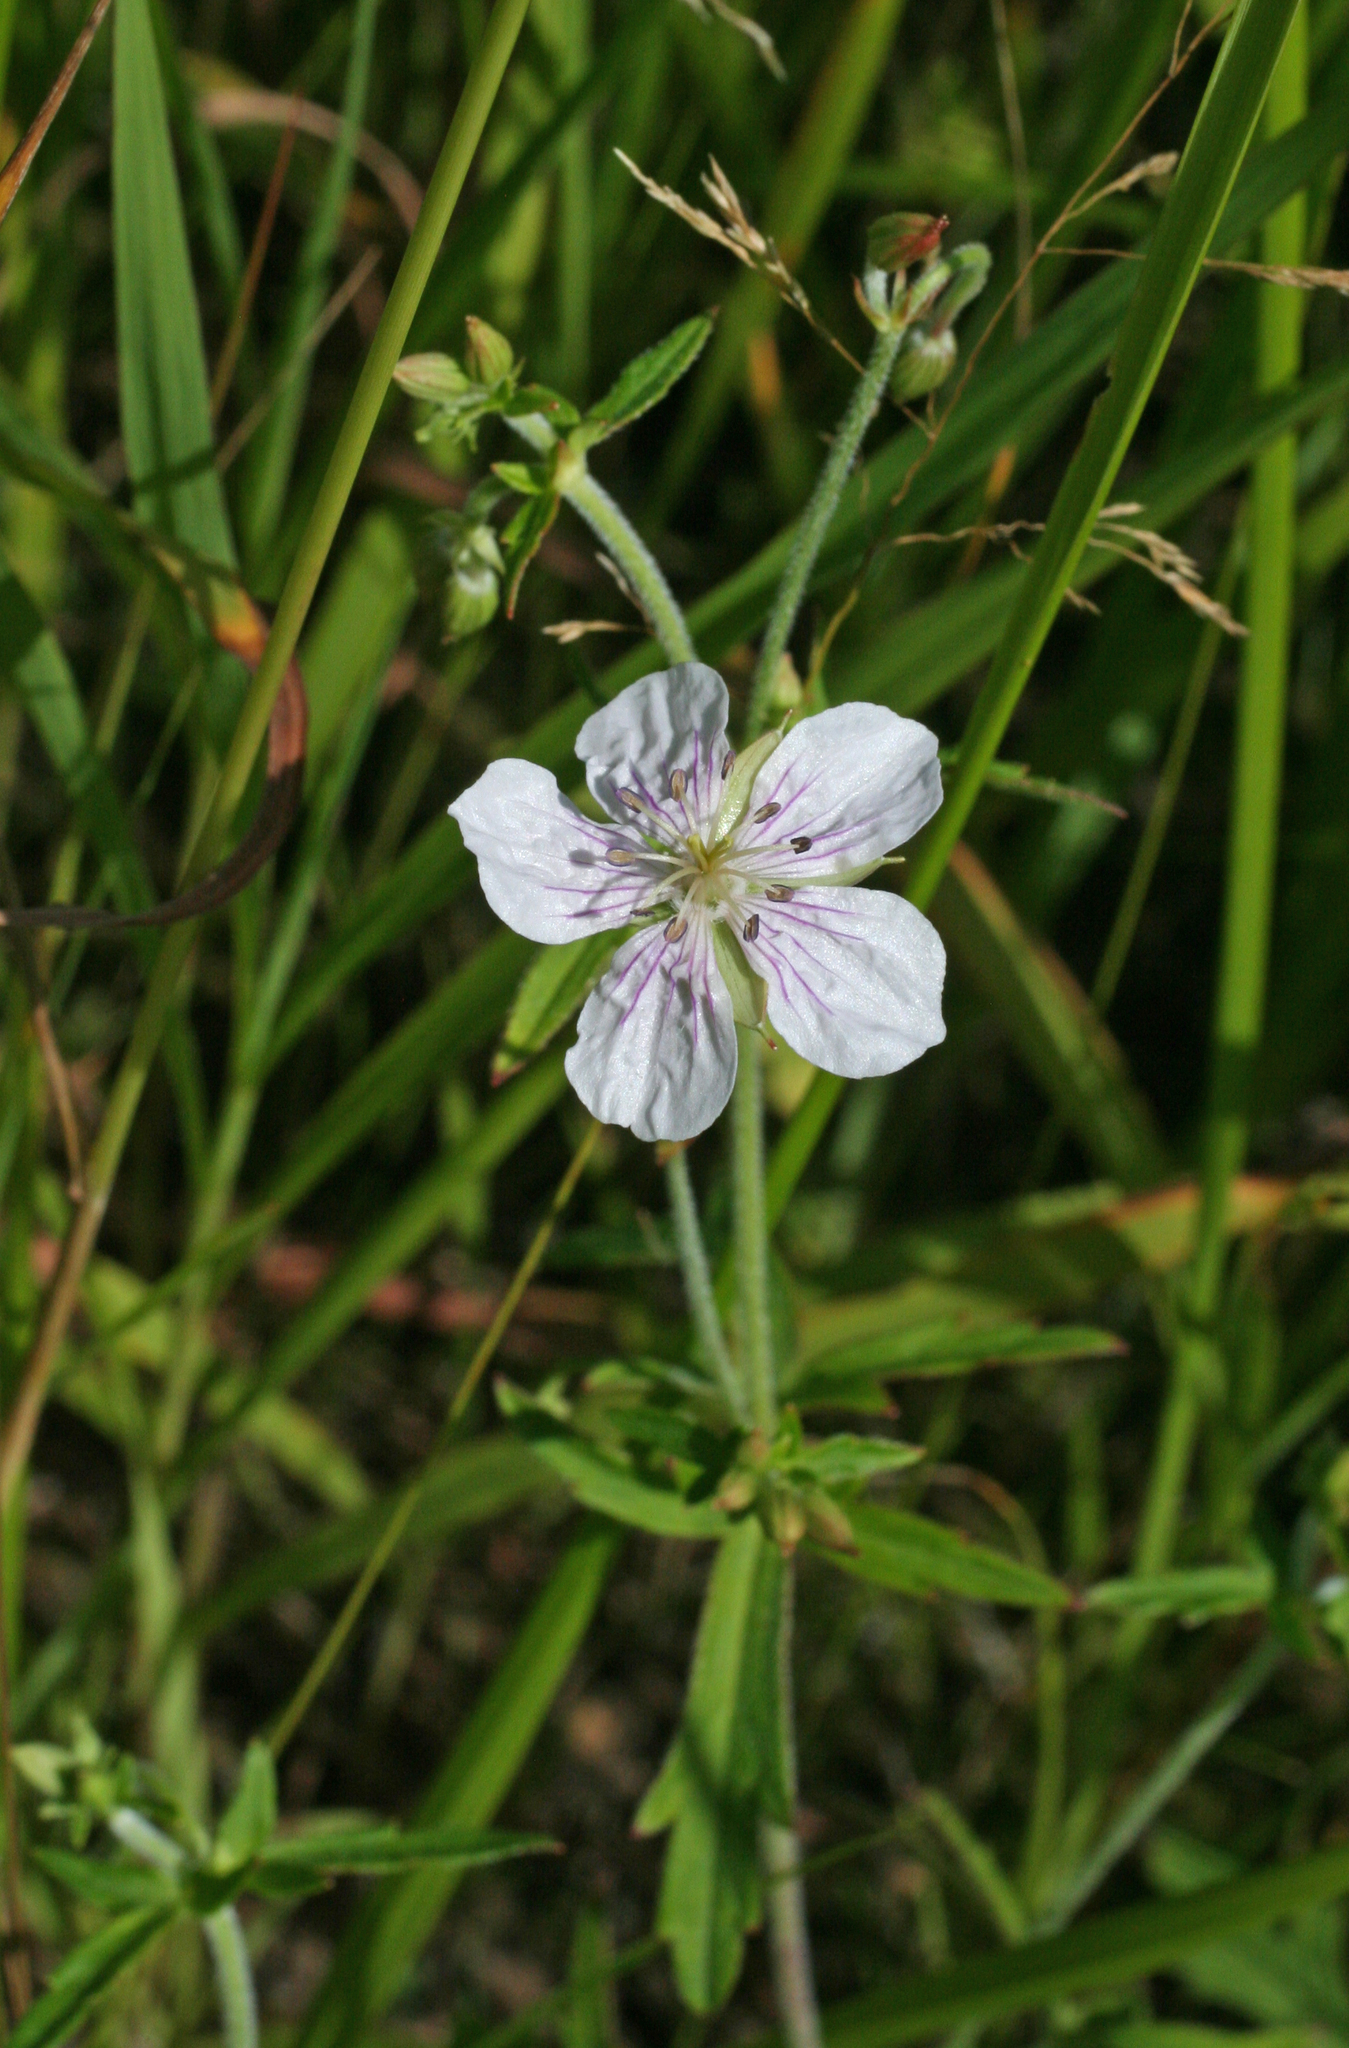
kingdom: Plantae
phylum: Tracheophyta
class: Magnoliopsida
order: Geraniales
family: Geraniaceae
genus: Geranium
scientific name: Geranium krameri
